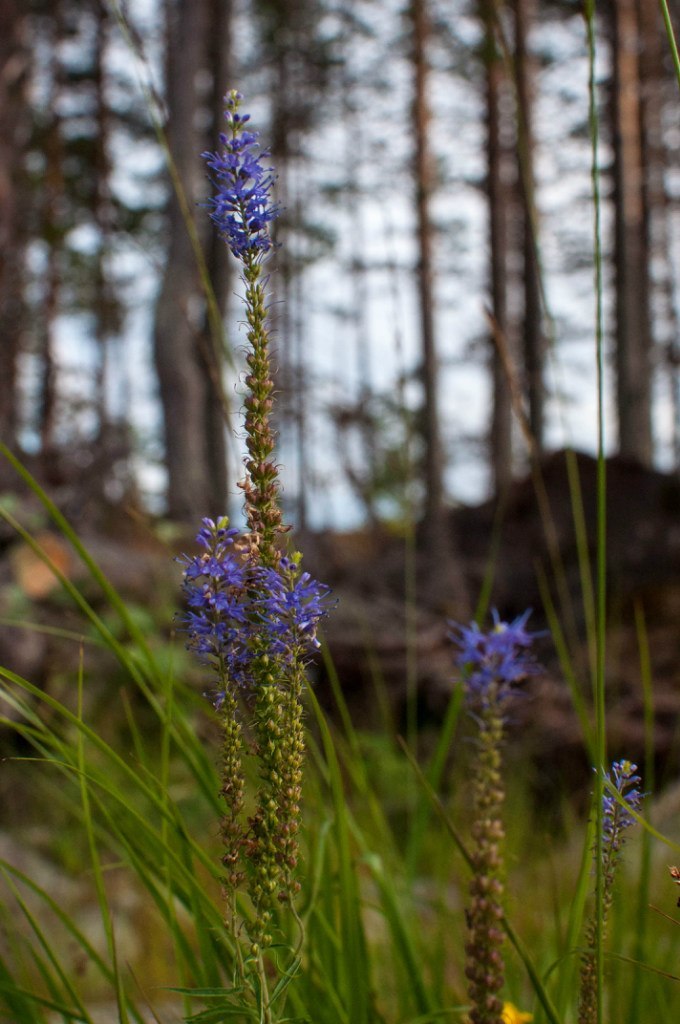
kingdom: Plantae
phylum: Tracheophyta
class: Magnoliopsida
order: Lamiales
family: Plantaginaceae
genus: Veronica
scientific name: Veronica spicata
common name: Spiked speedwell
